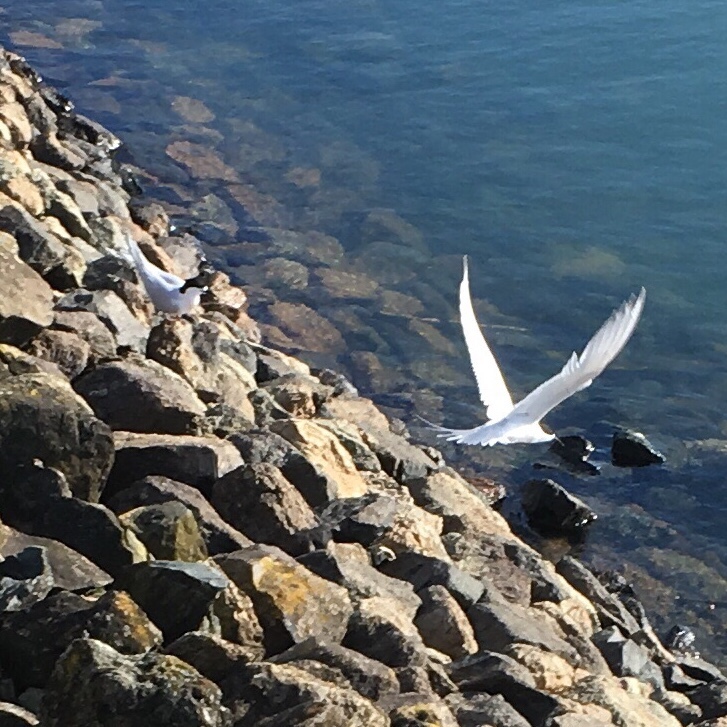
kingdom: Animalia
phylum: Chordata
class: Aves
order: Charadriiformes
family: Laridae
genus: Sterna
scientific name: Sterna striata
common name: White-fronted tern
